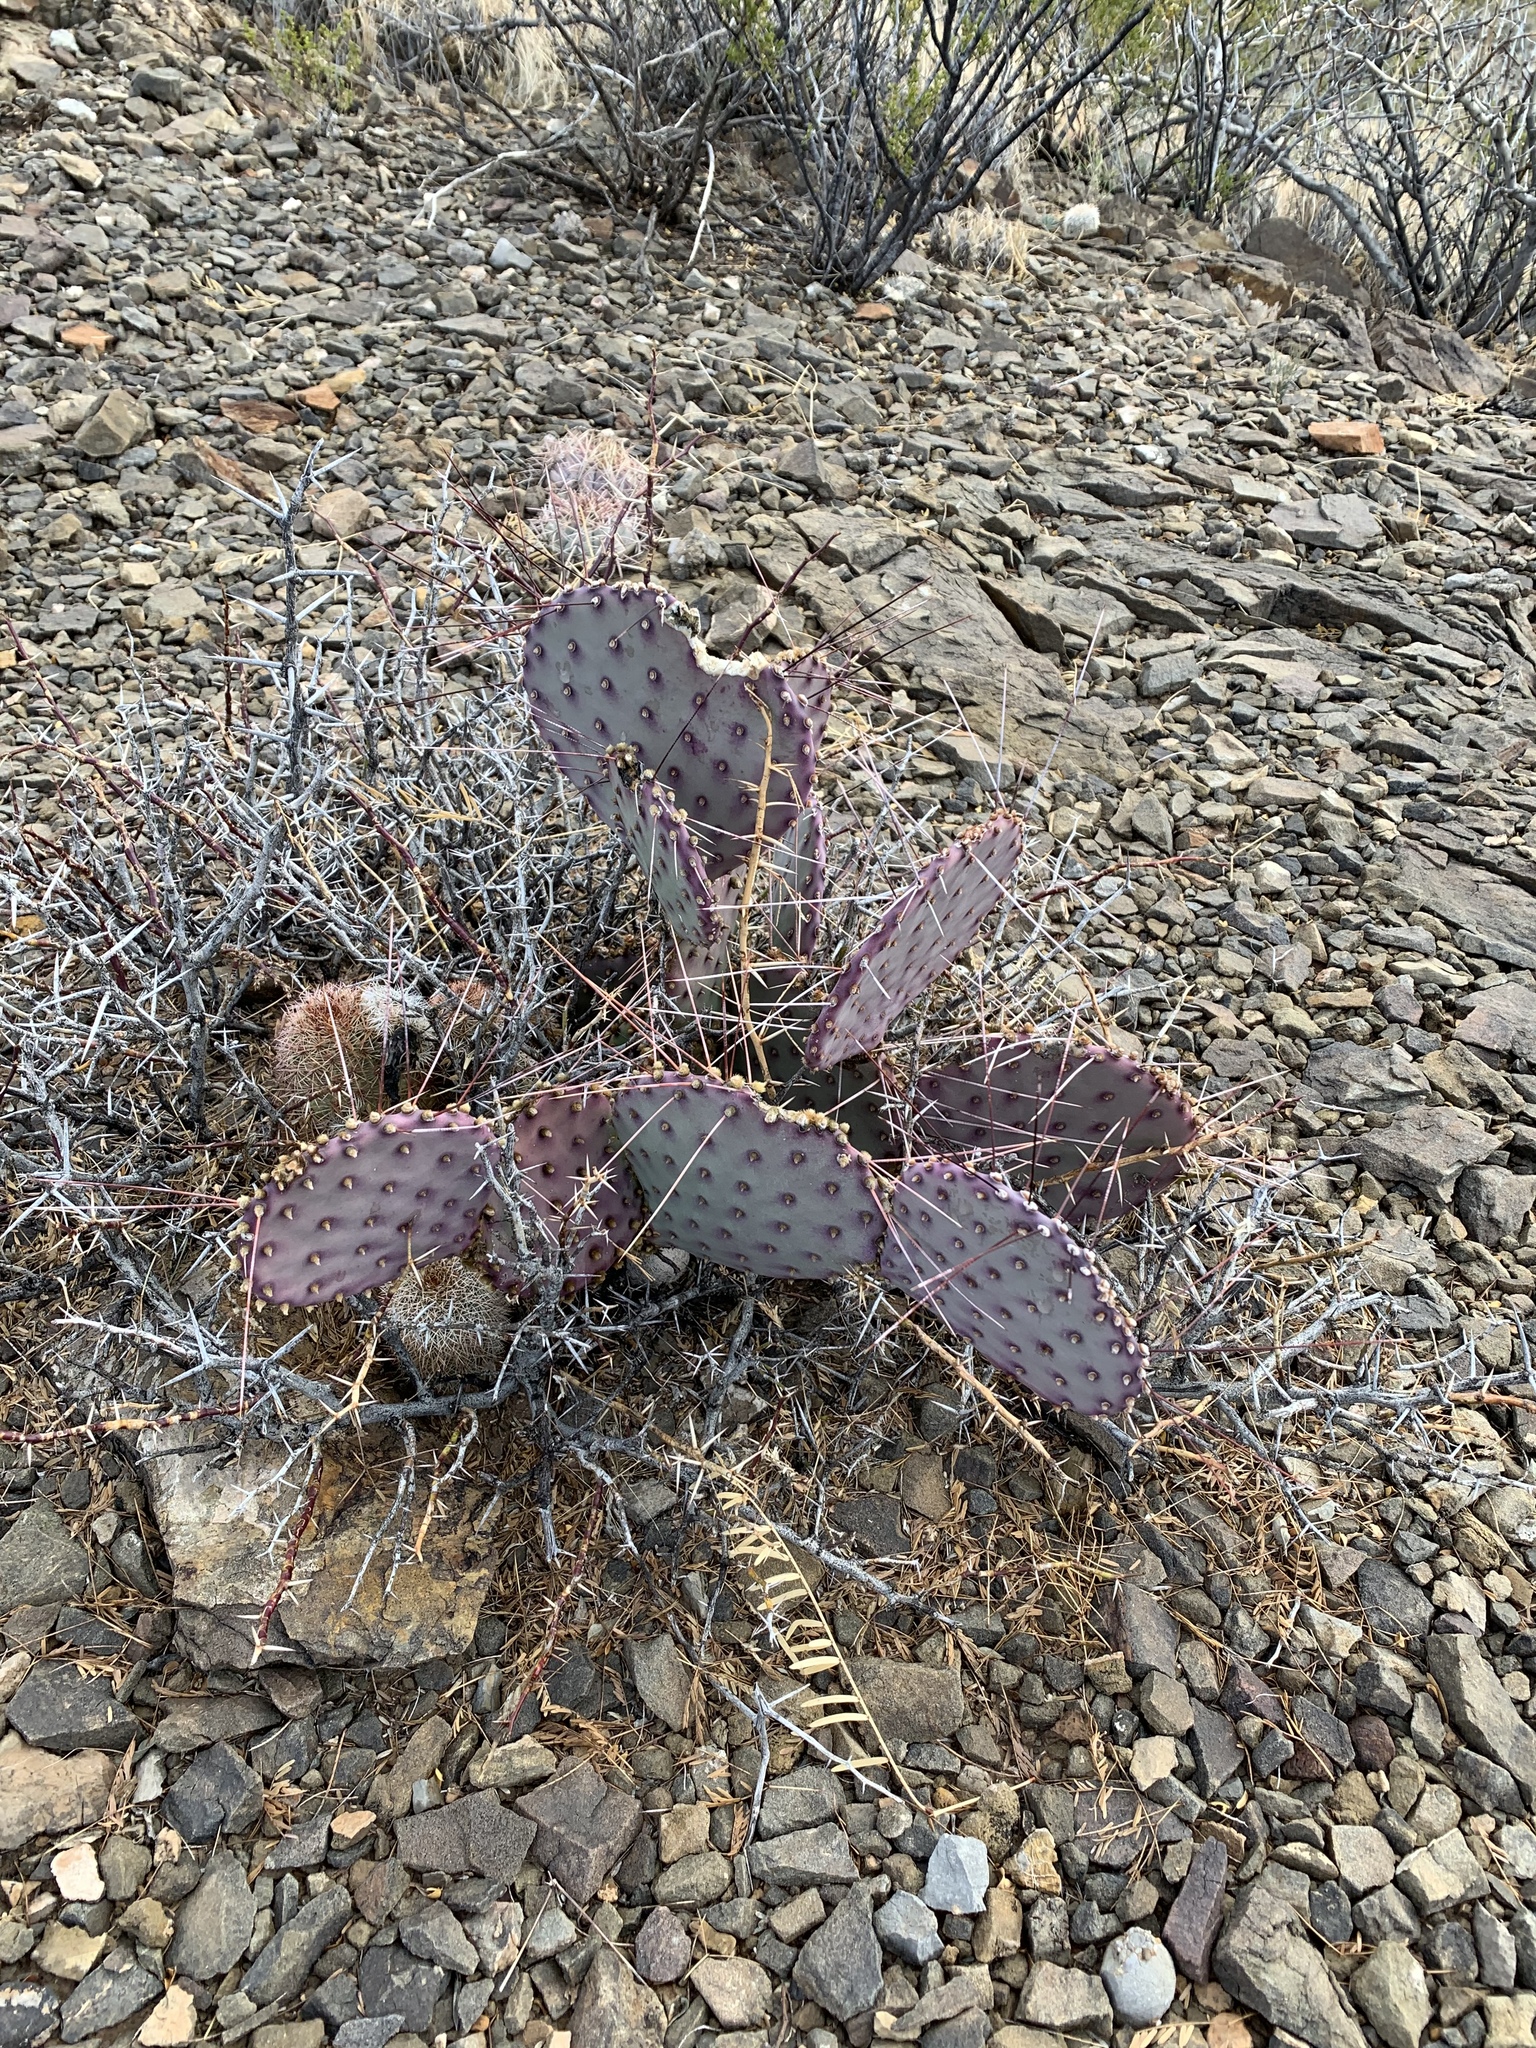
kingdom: Plantae
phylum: Tracheophyta
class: Magnoliopsida
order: Caryophyllales
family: Cactaceae
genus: Opuntia
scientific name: Opuntia macrocentra
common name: Purple prickly-pear
